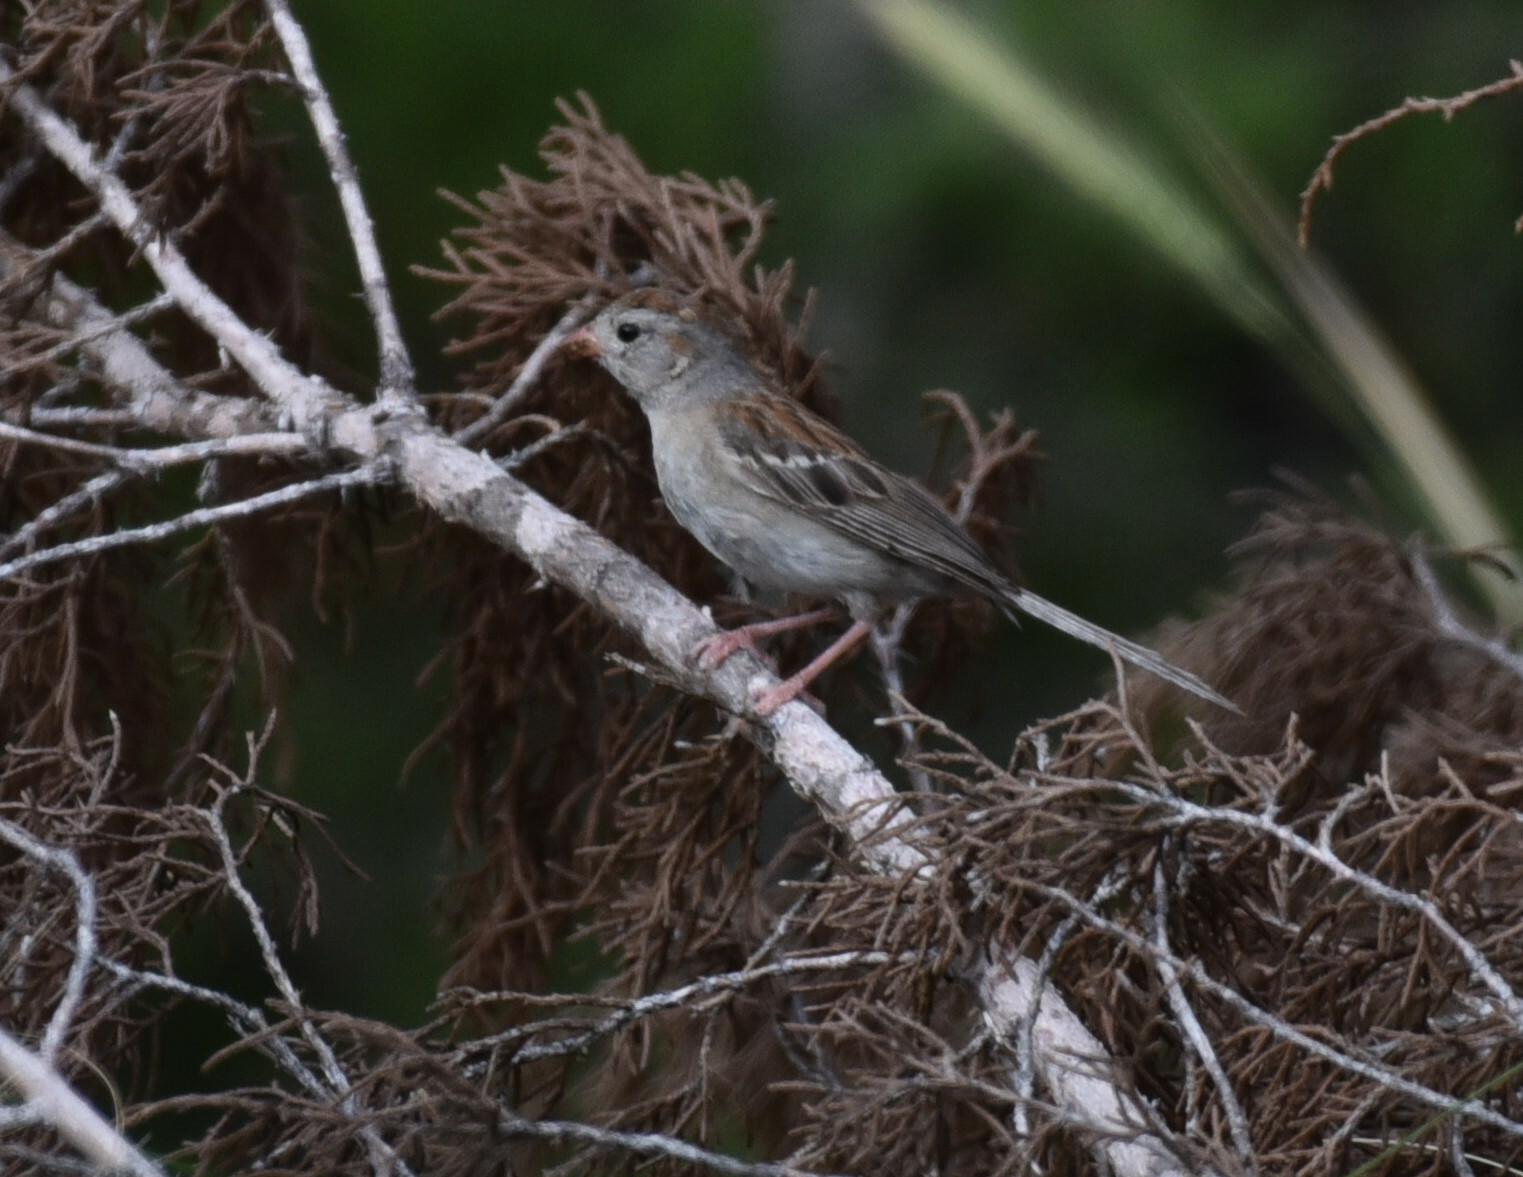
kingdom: Animalia
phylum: Chordata
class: Aves
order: Passeriformes
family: Passerellidae
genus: Spizella
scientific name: Spizella pusilla
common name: Field sparrow
